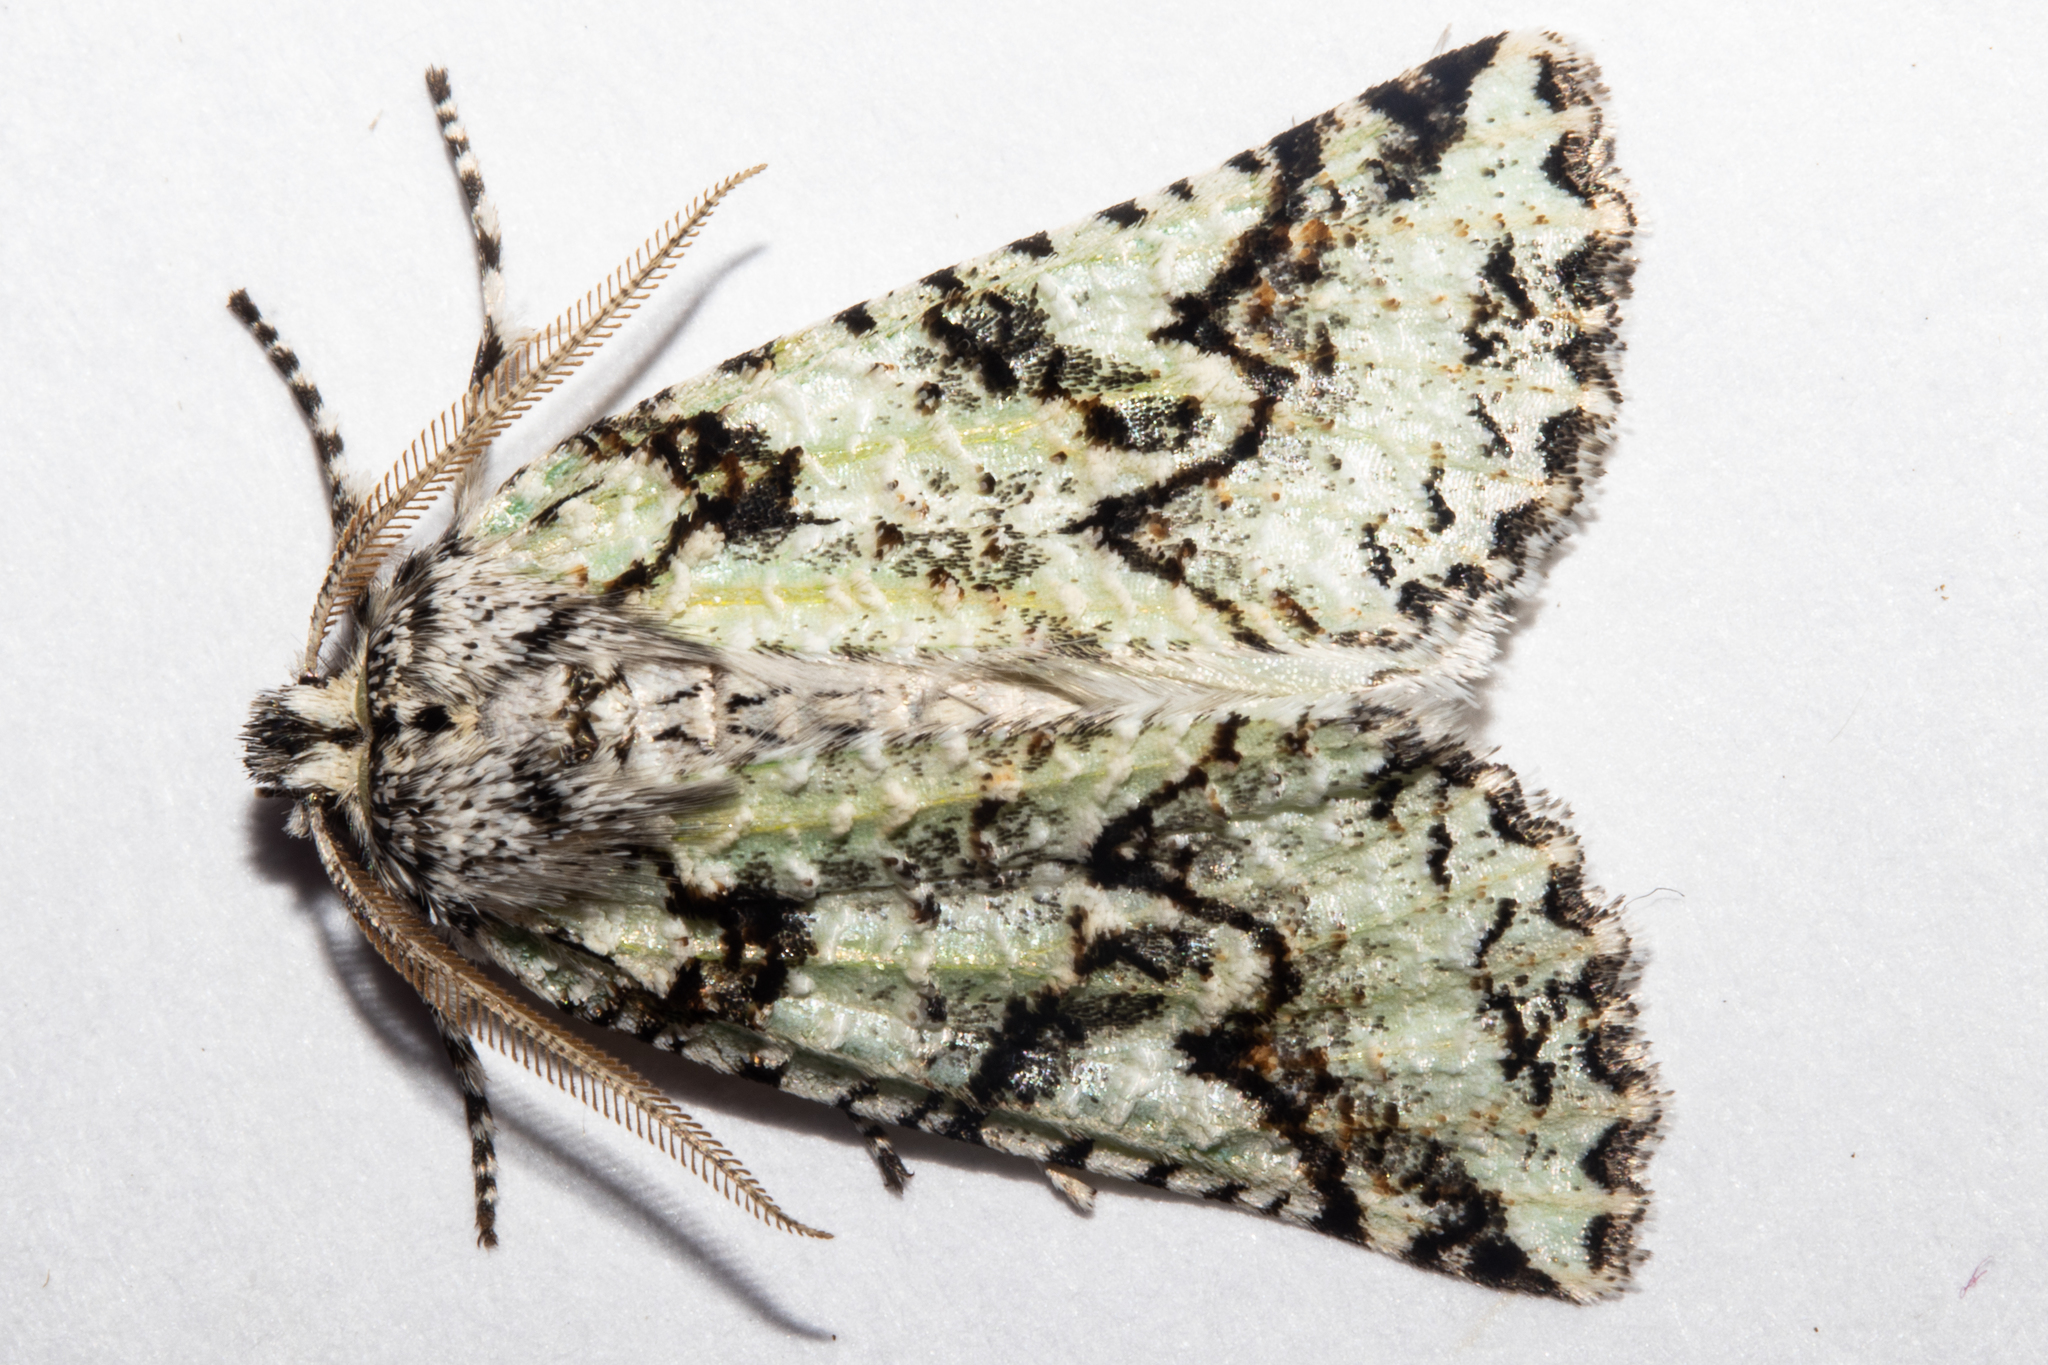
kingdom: Animalia
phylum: Arthropoda
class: Insecta
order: Lepidoptera
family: Geometridae
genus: Declana
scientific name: Declana floccosa
